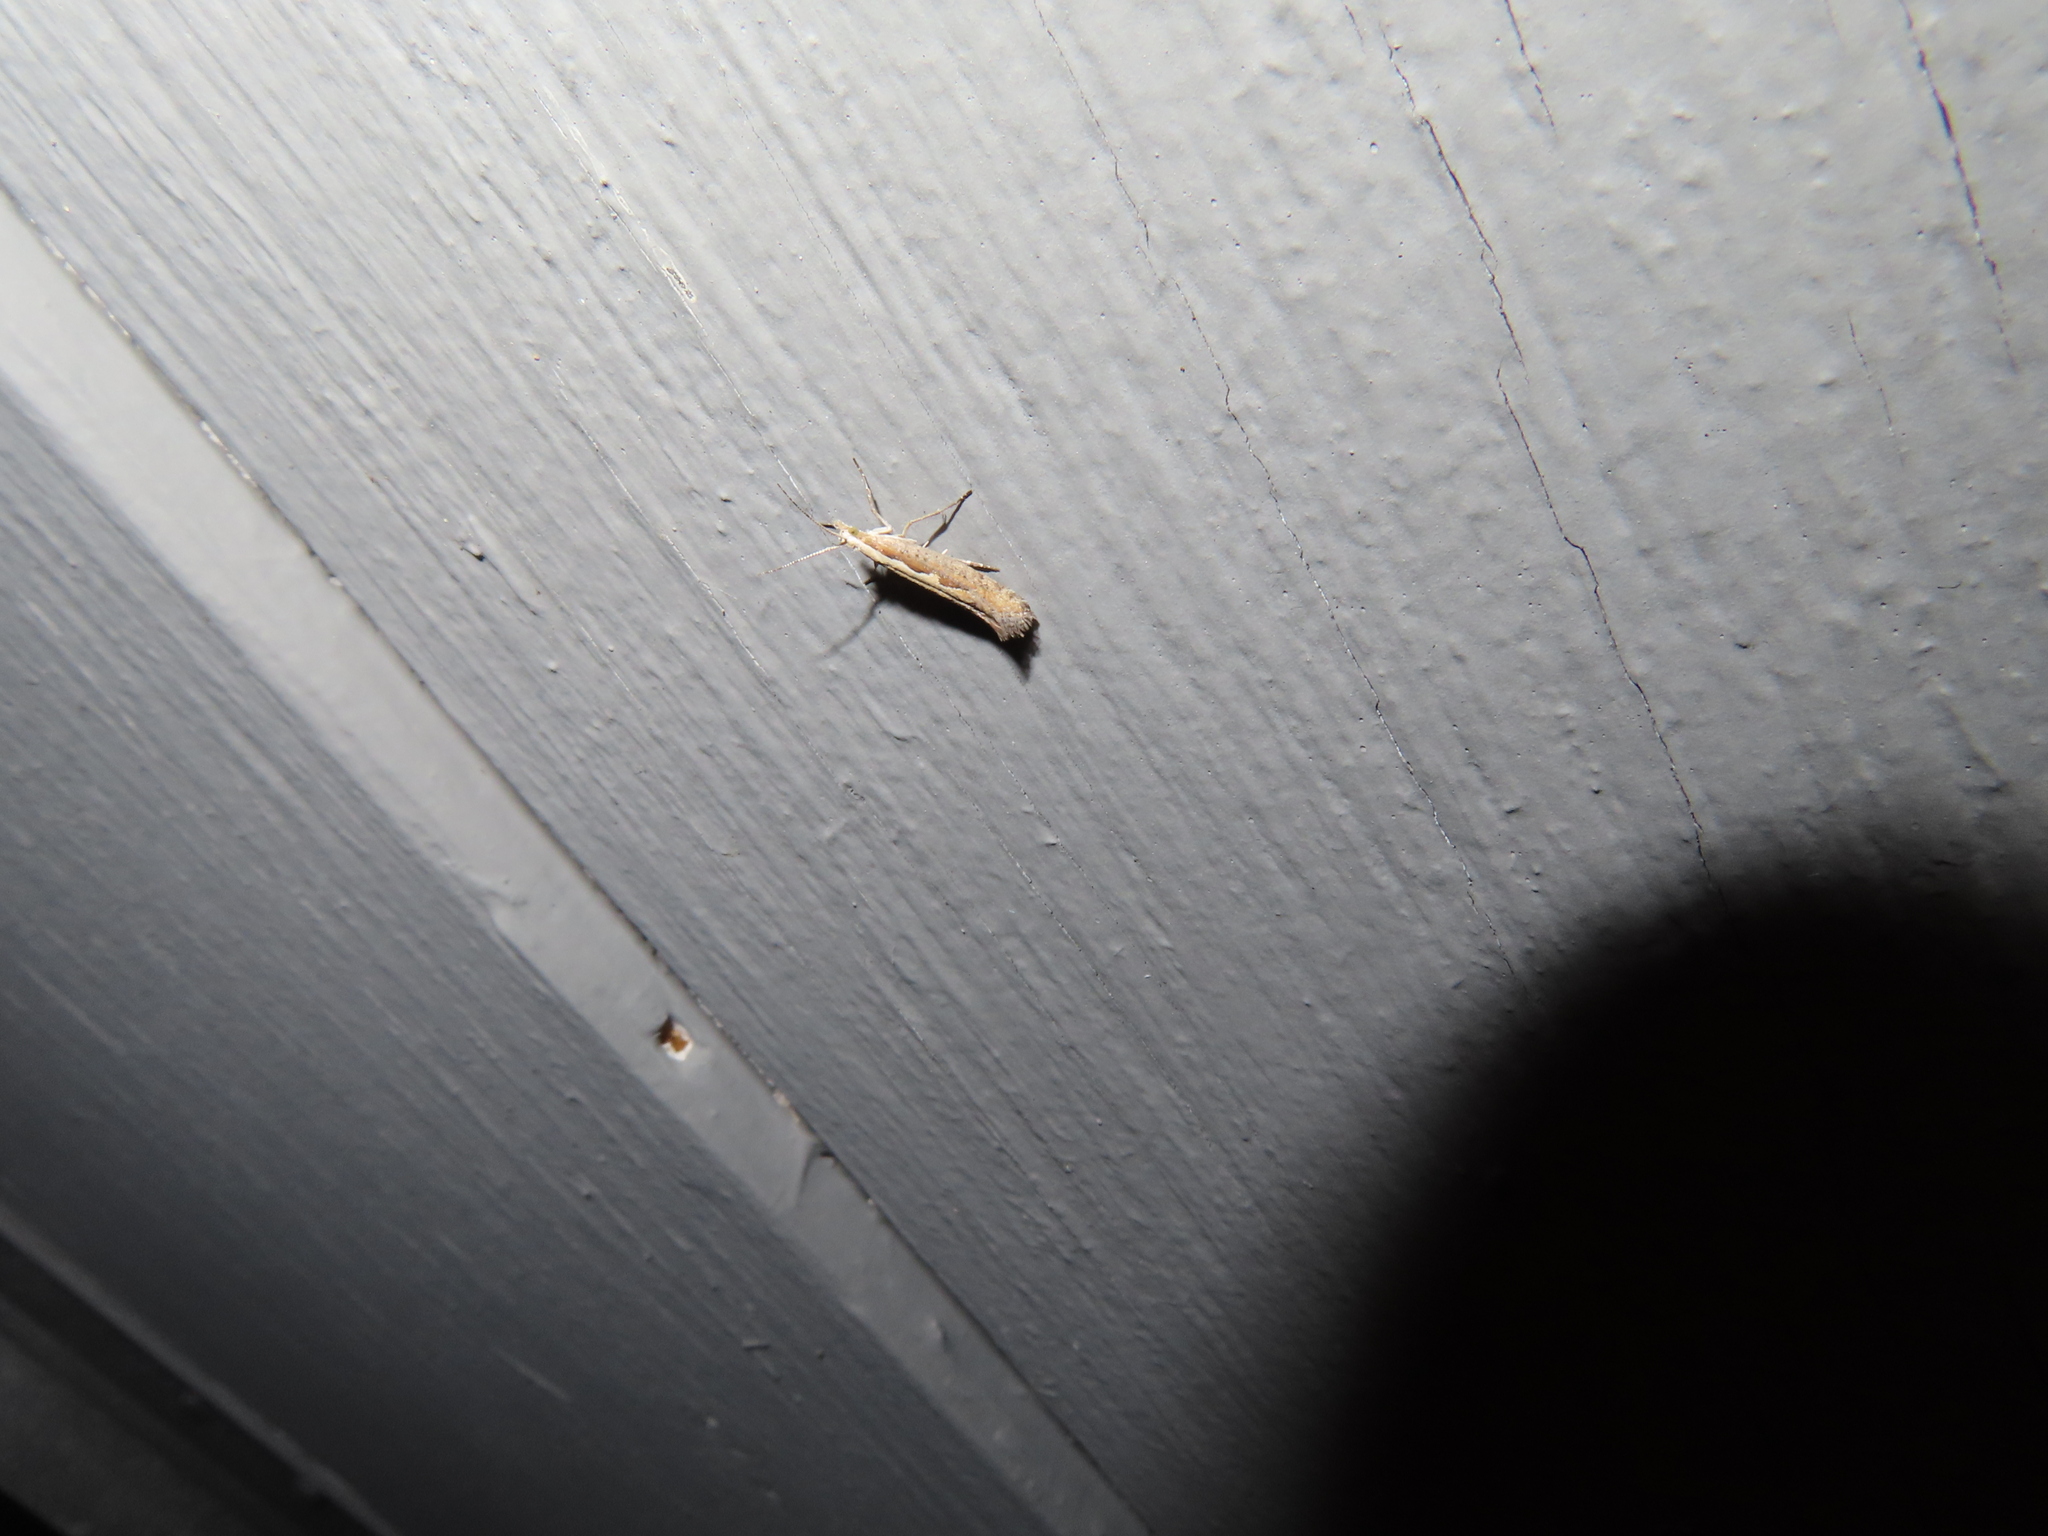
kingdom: Animalia
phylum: Arthropoda
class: Insecta
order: Lepidoptera
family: Plutellidae
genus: Plutella
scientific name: Plutella xylostella
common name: Diamond-back moth
